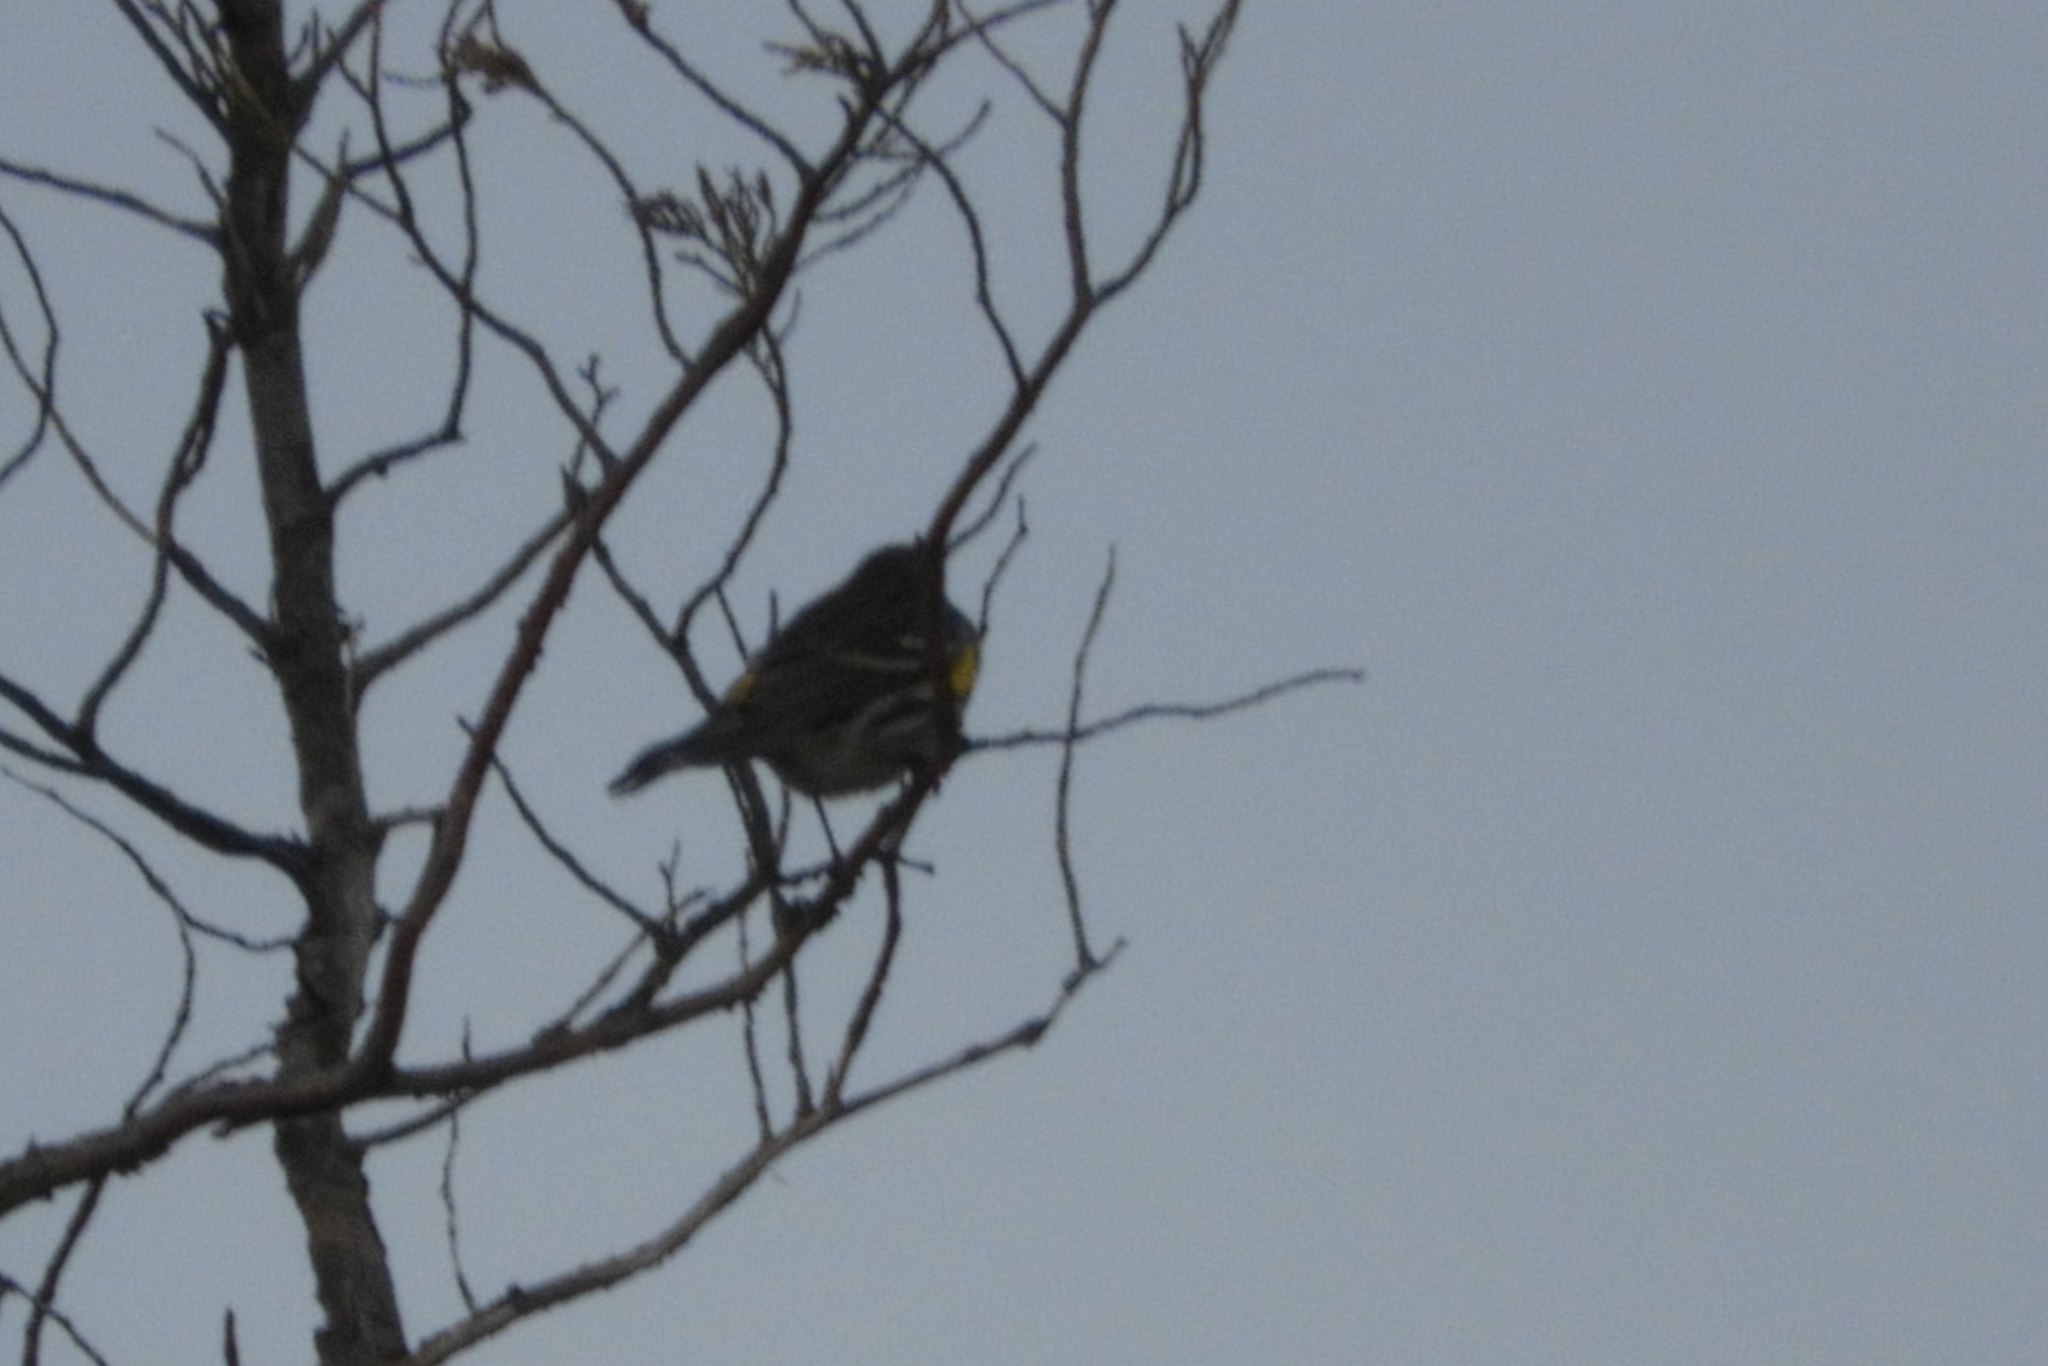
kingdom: Animalia
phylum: Chordata
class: Aves
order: Passeriformes
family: Parulidae
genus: Setophaga
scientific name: Setophaga coronata
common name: Myrtle warbler
